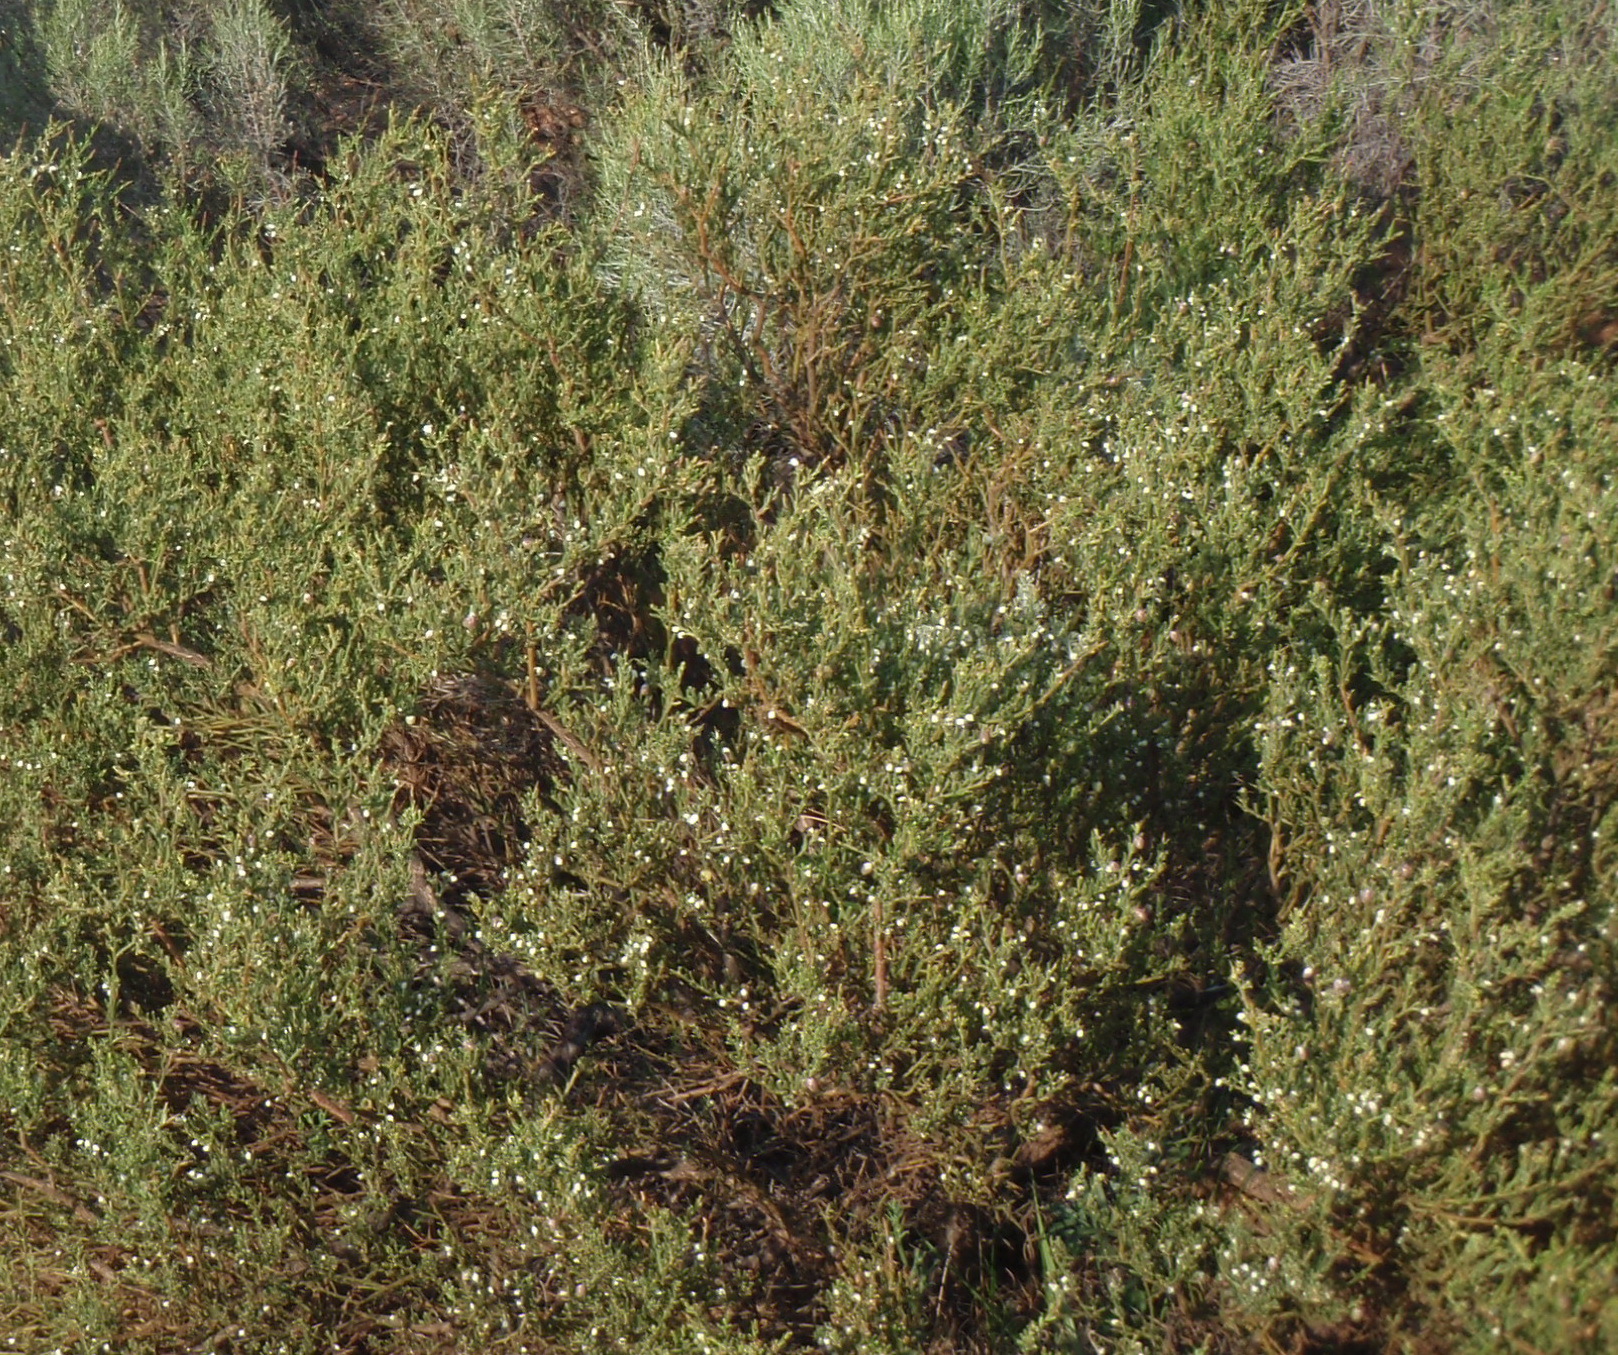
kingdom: Plantae
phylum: Tracheophyta
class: Magnoliopsida
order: Fabales
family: Polygalaceae
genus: Muraltia
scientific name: Muraltia spinosa
